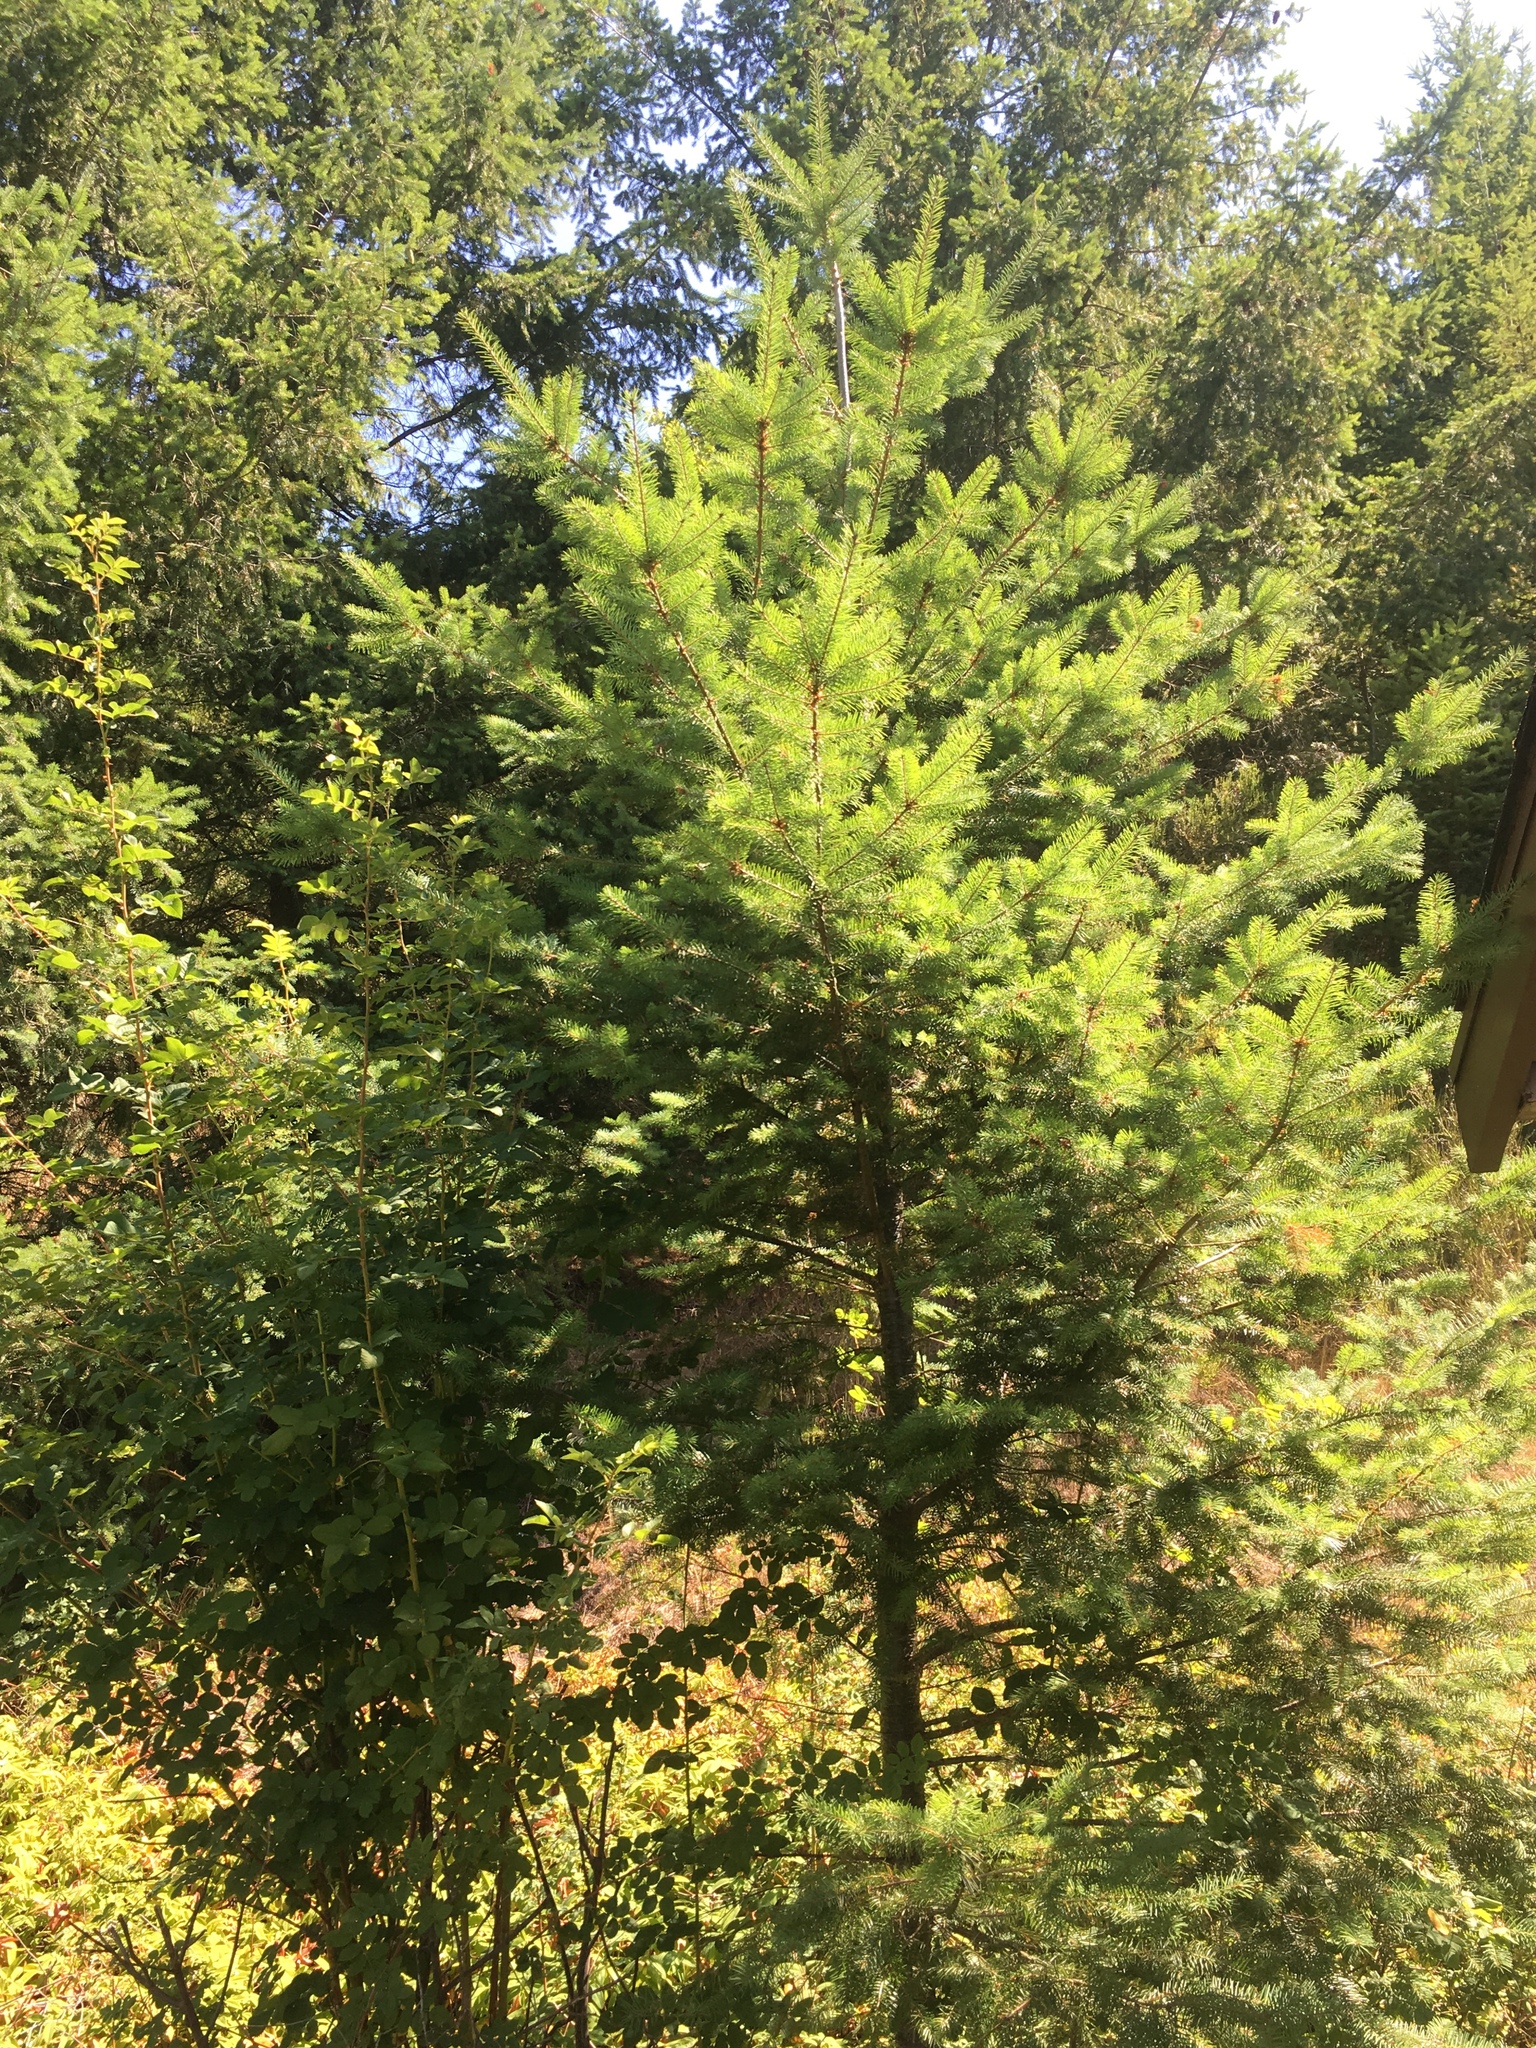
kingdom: Plantae
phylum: Tracheophyta
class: Pinopsida
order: Pinales
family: Pinaceae
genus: Pseudotsuga
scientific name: Pseudotsuga menziesii
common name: Douglas fir
